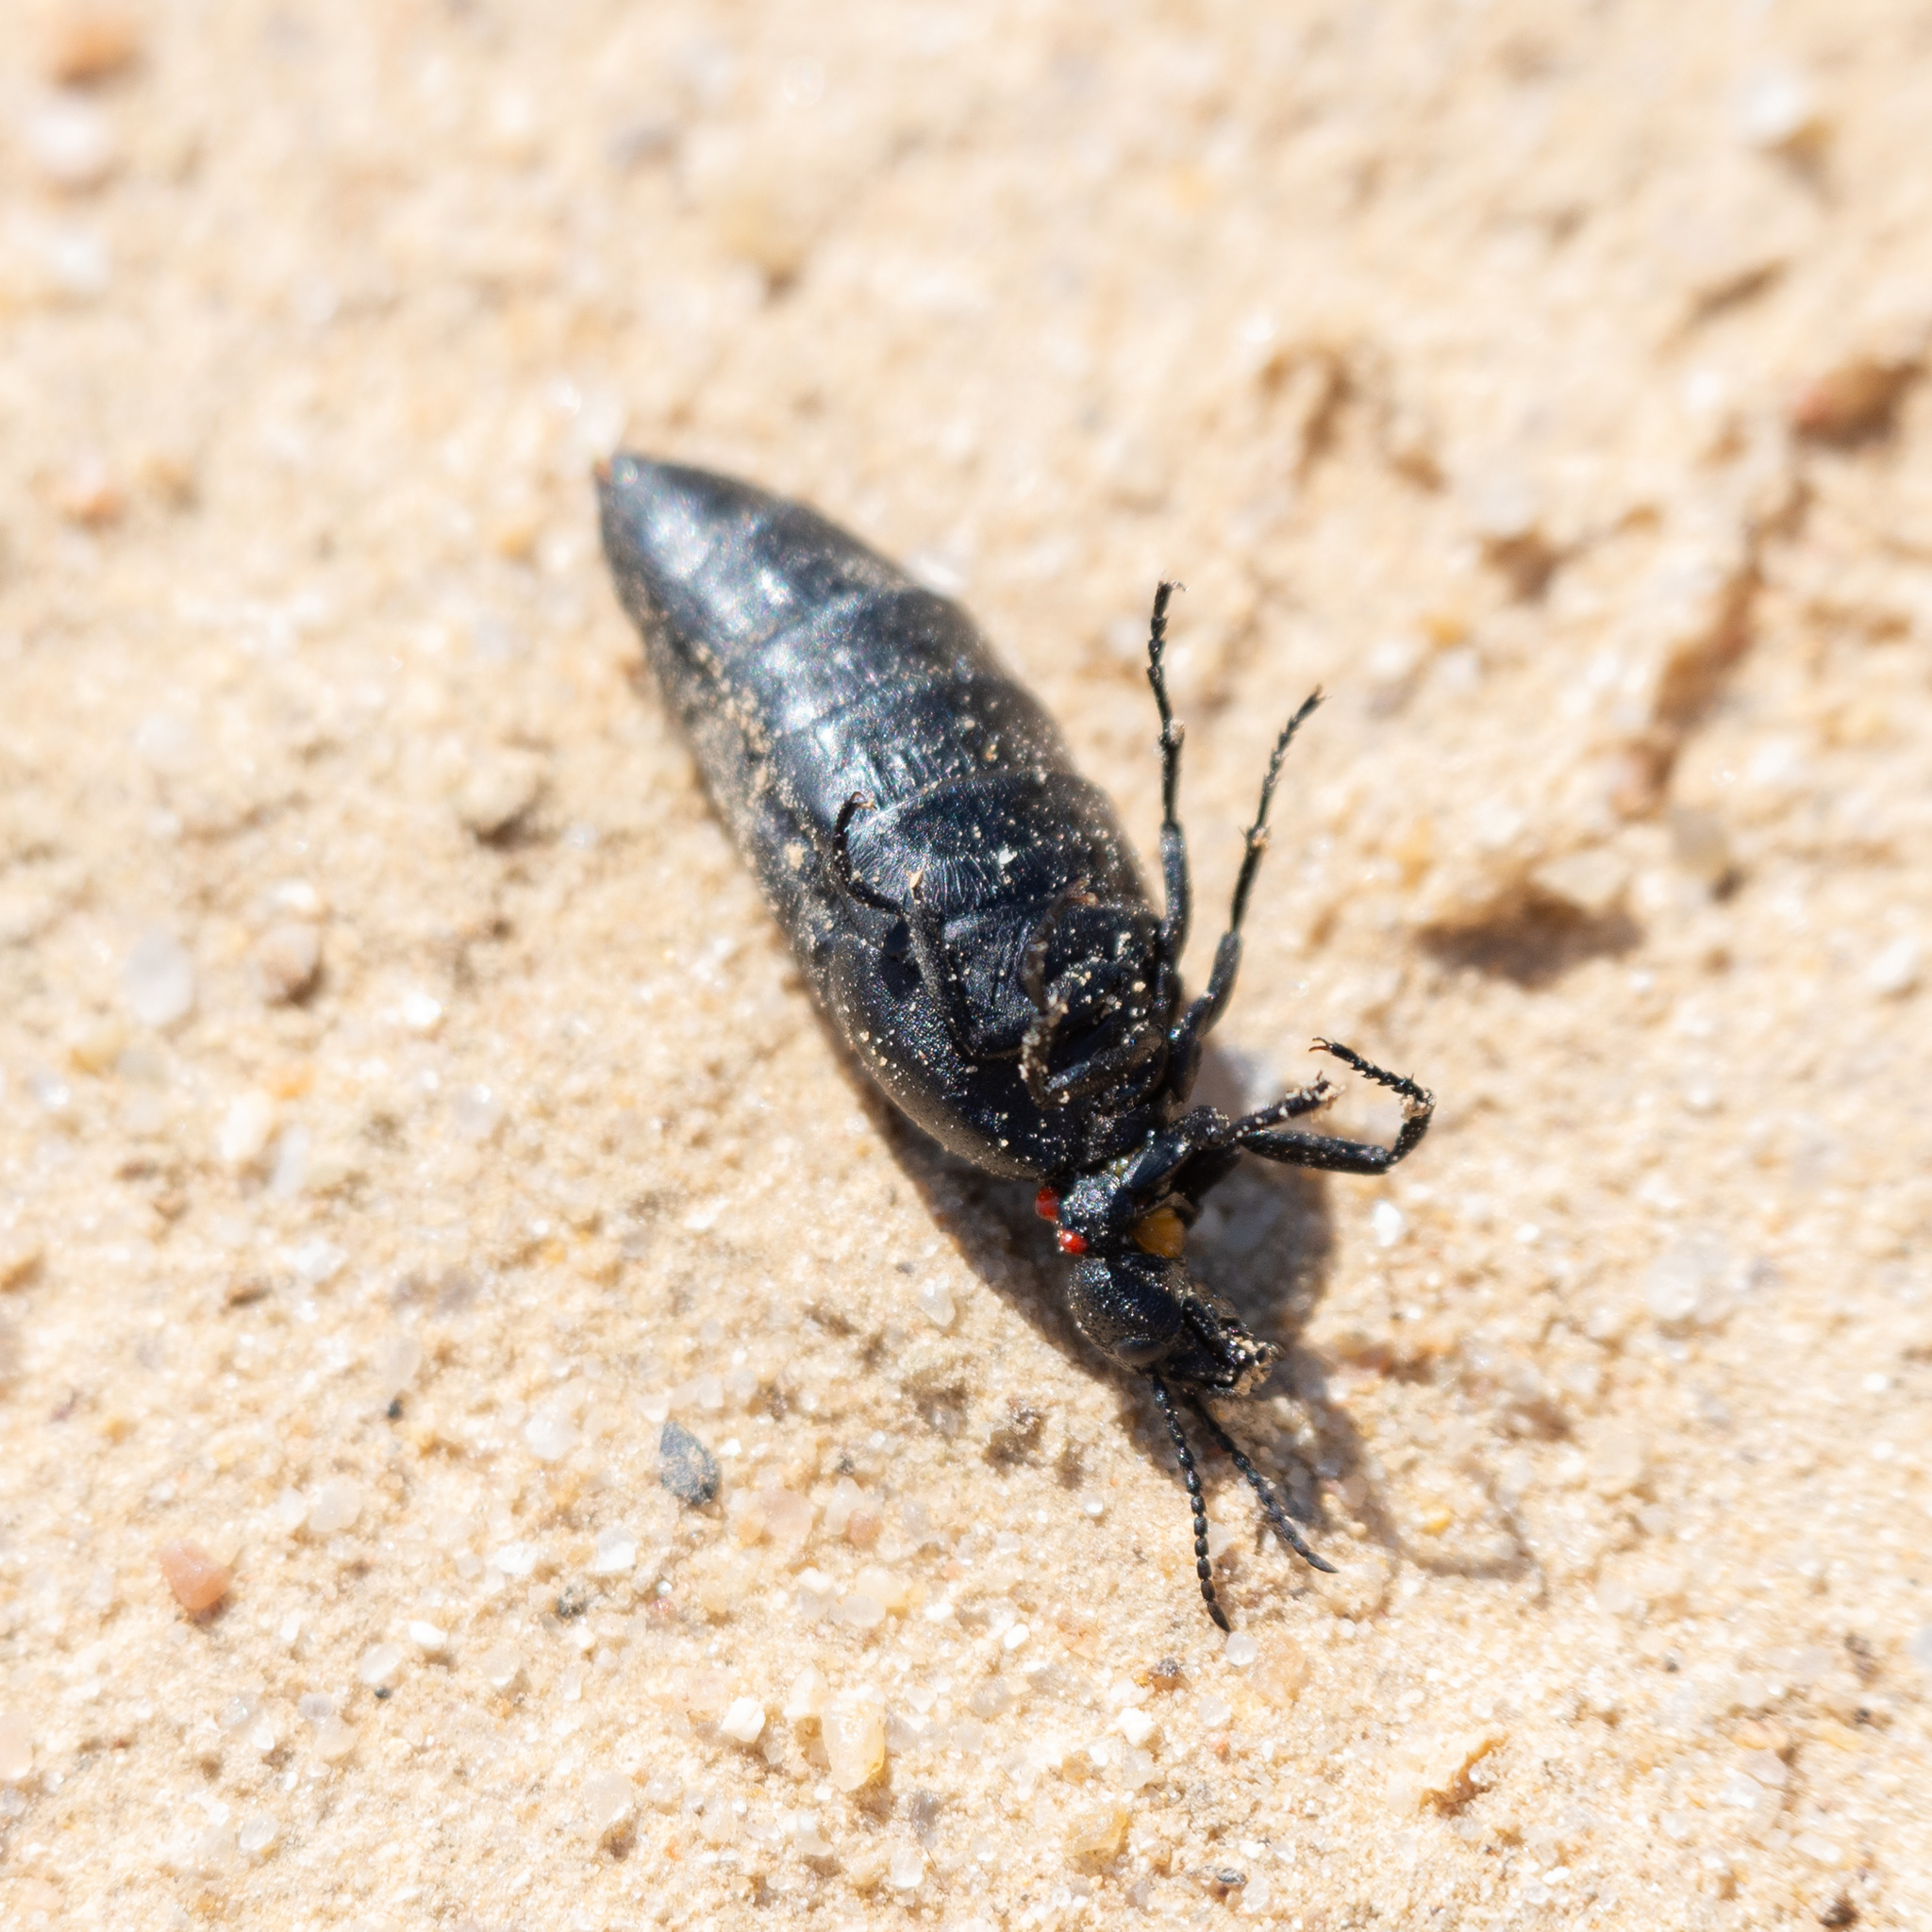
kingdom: Animalia
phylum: Arthropoda
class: Insecta
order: Coleoptera
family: Meloidae
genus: Physomeloe
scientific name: Physomeloe corallifer
